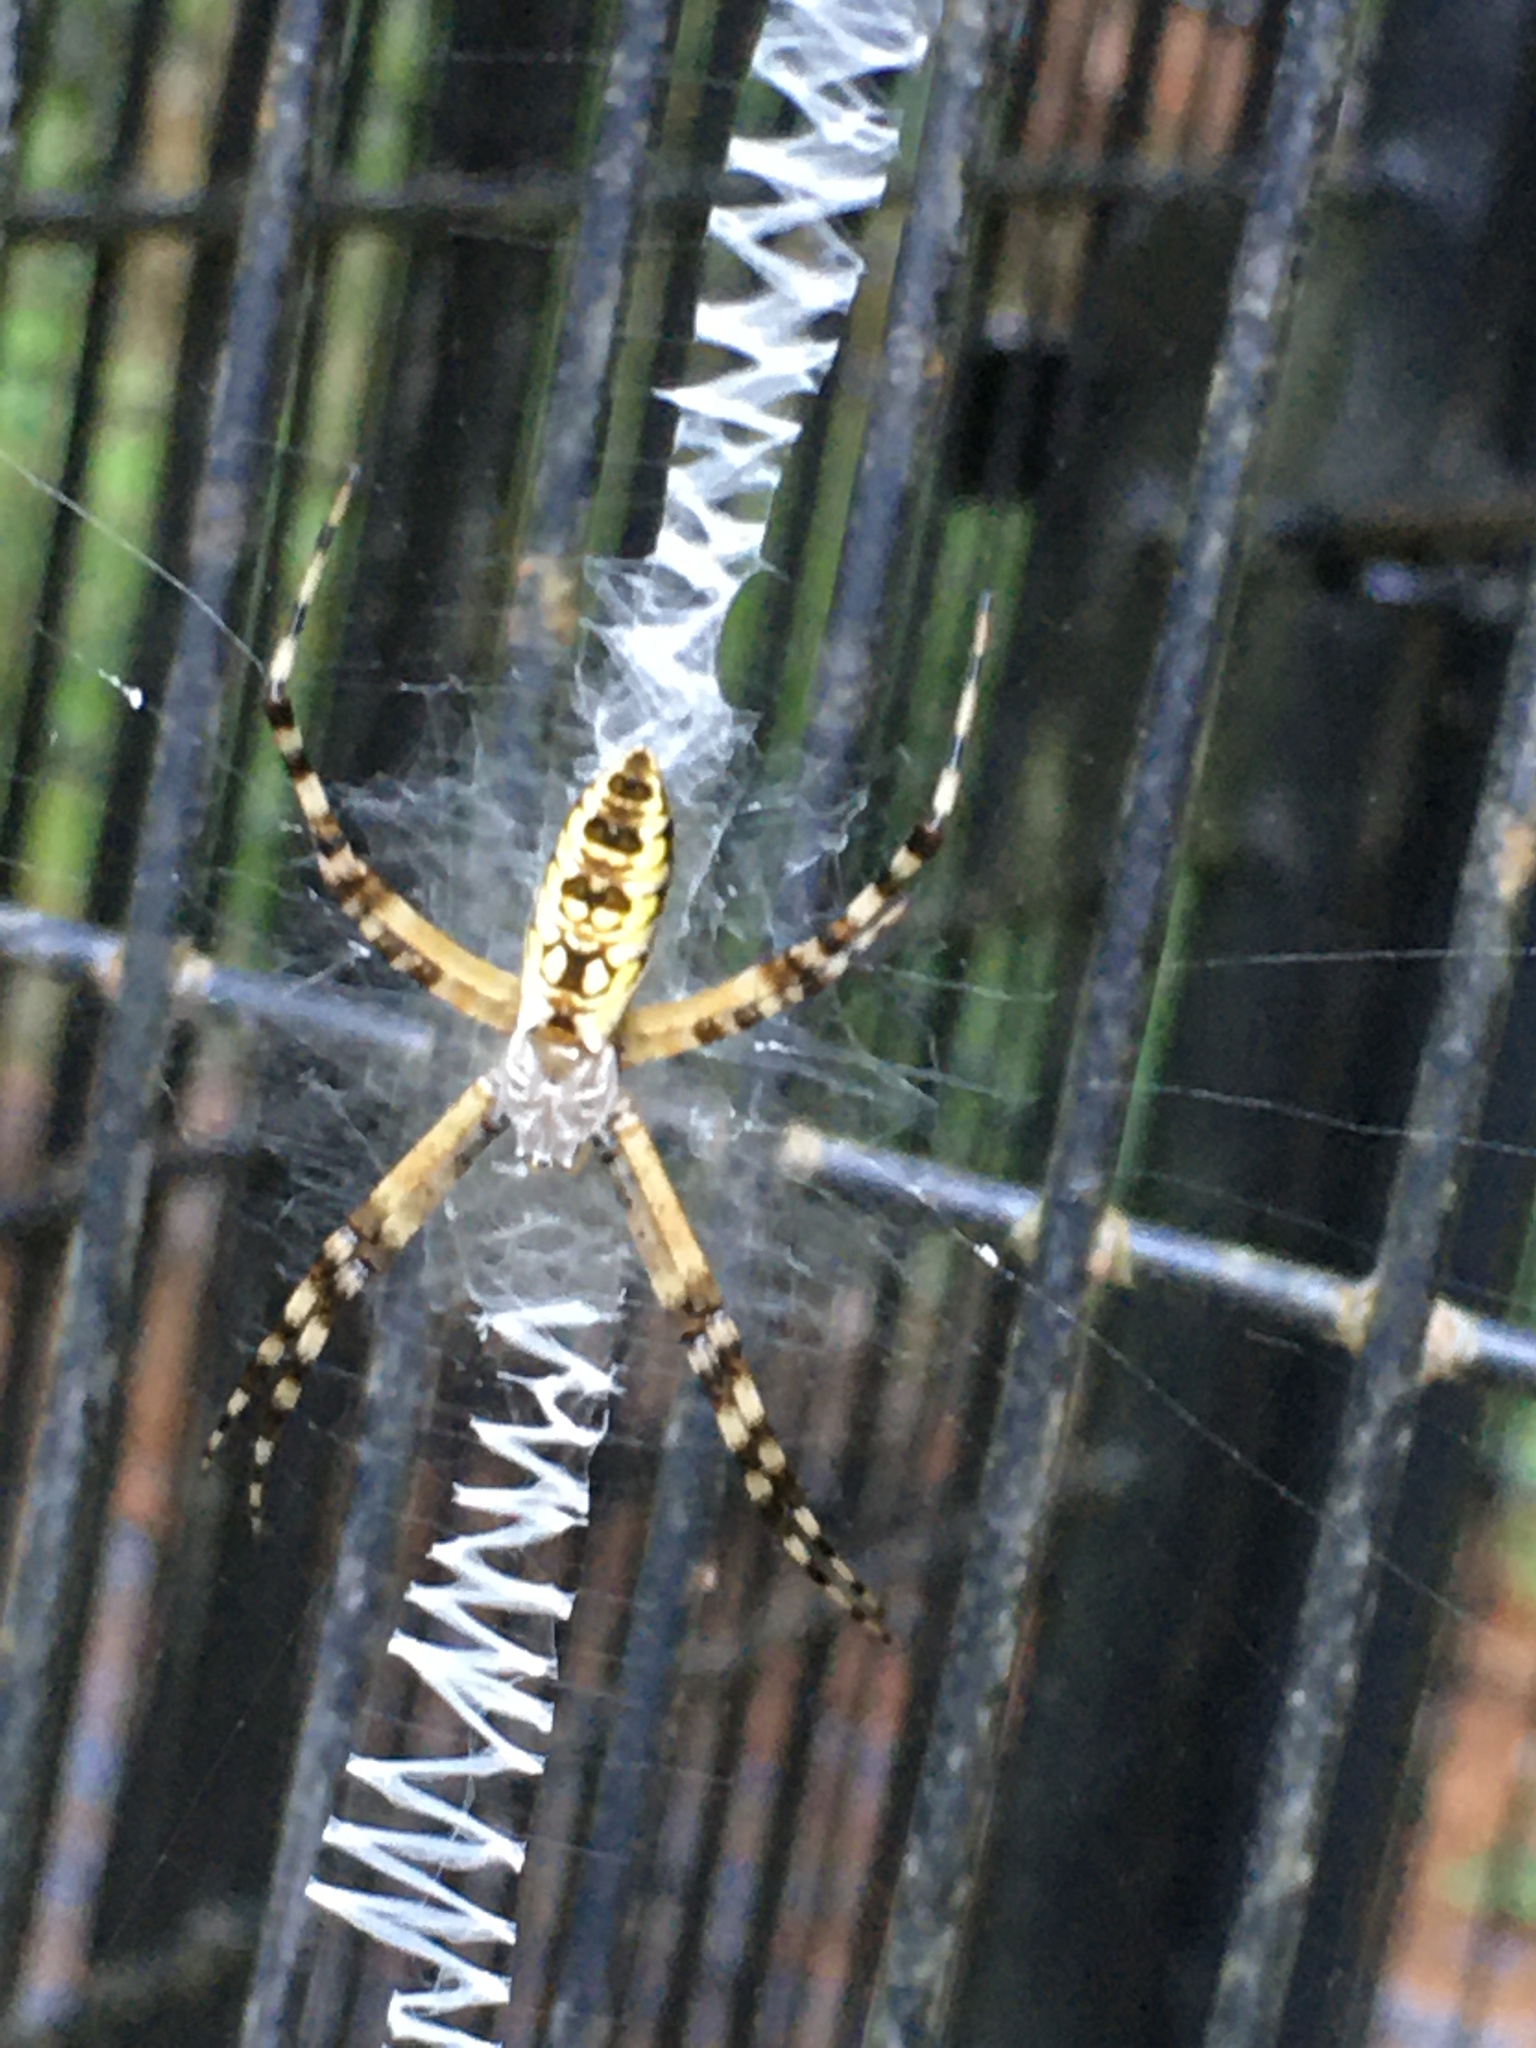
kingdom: Animalia
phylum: Arthropoda
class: Arachnida
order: Araneae
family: Araneidae
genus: Argiope
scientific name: Argiope aurantia
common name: Orb weavers
